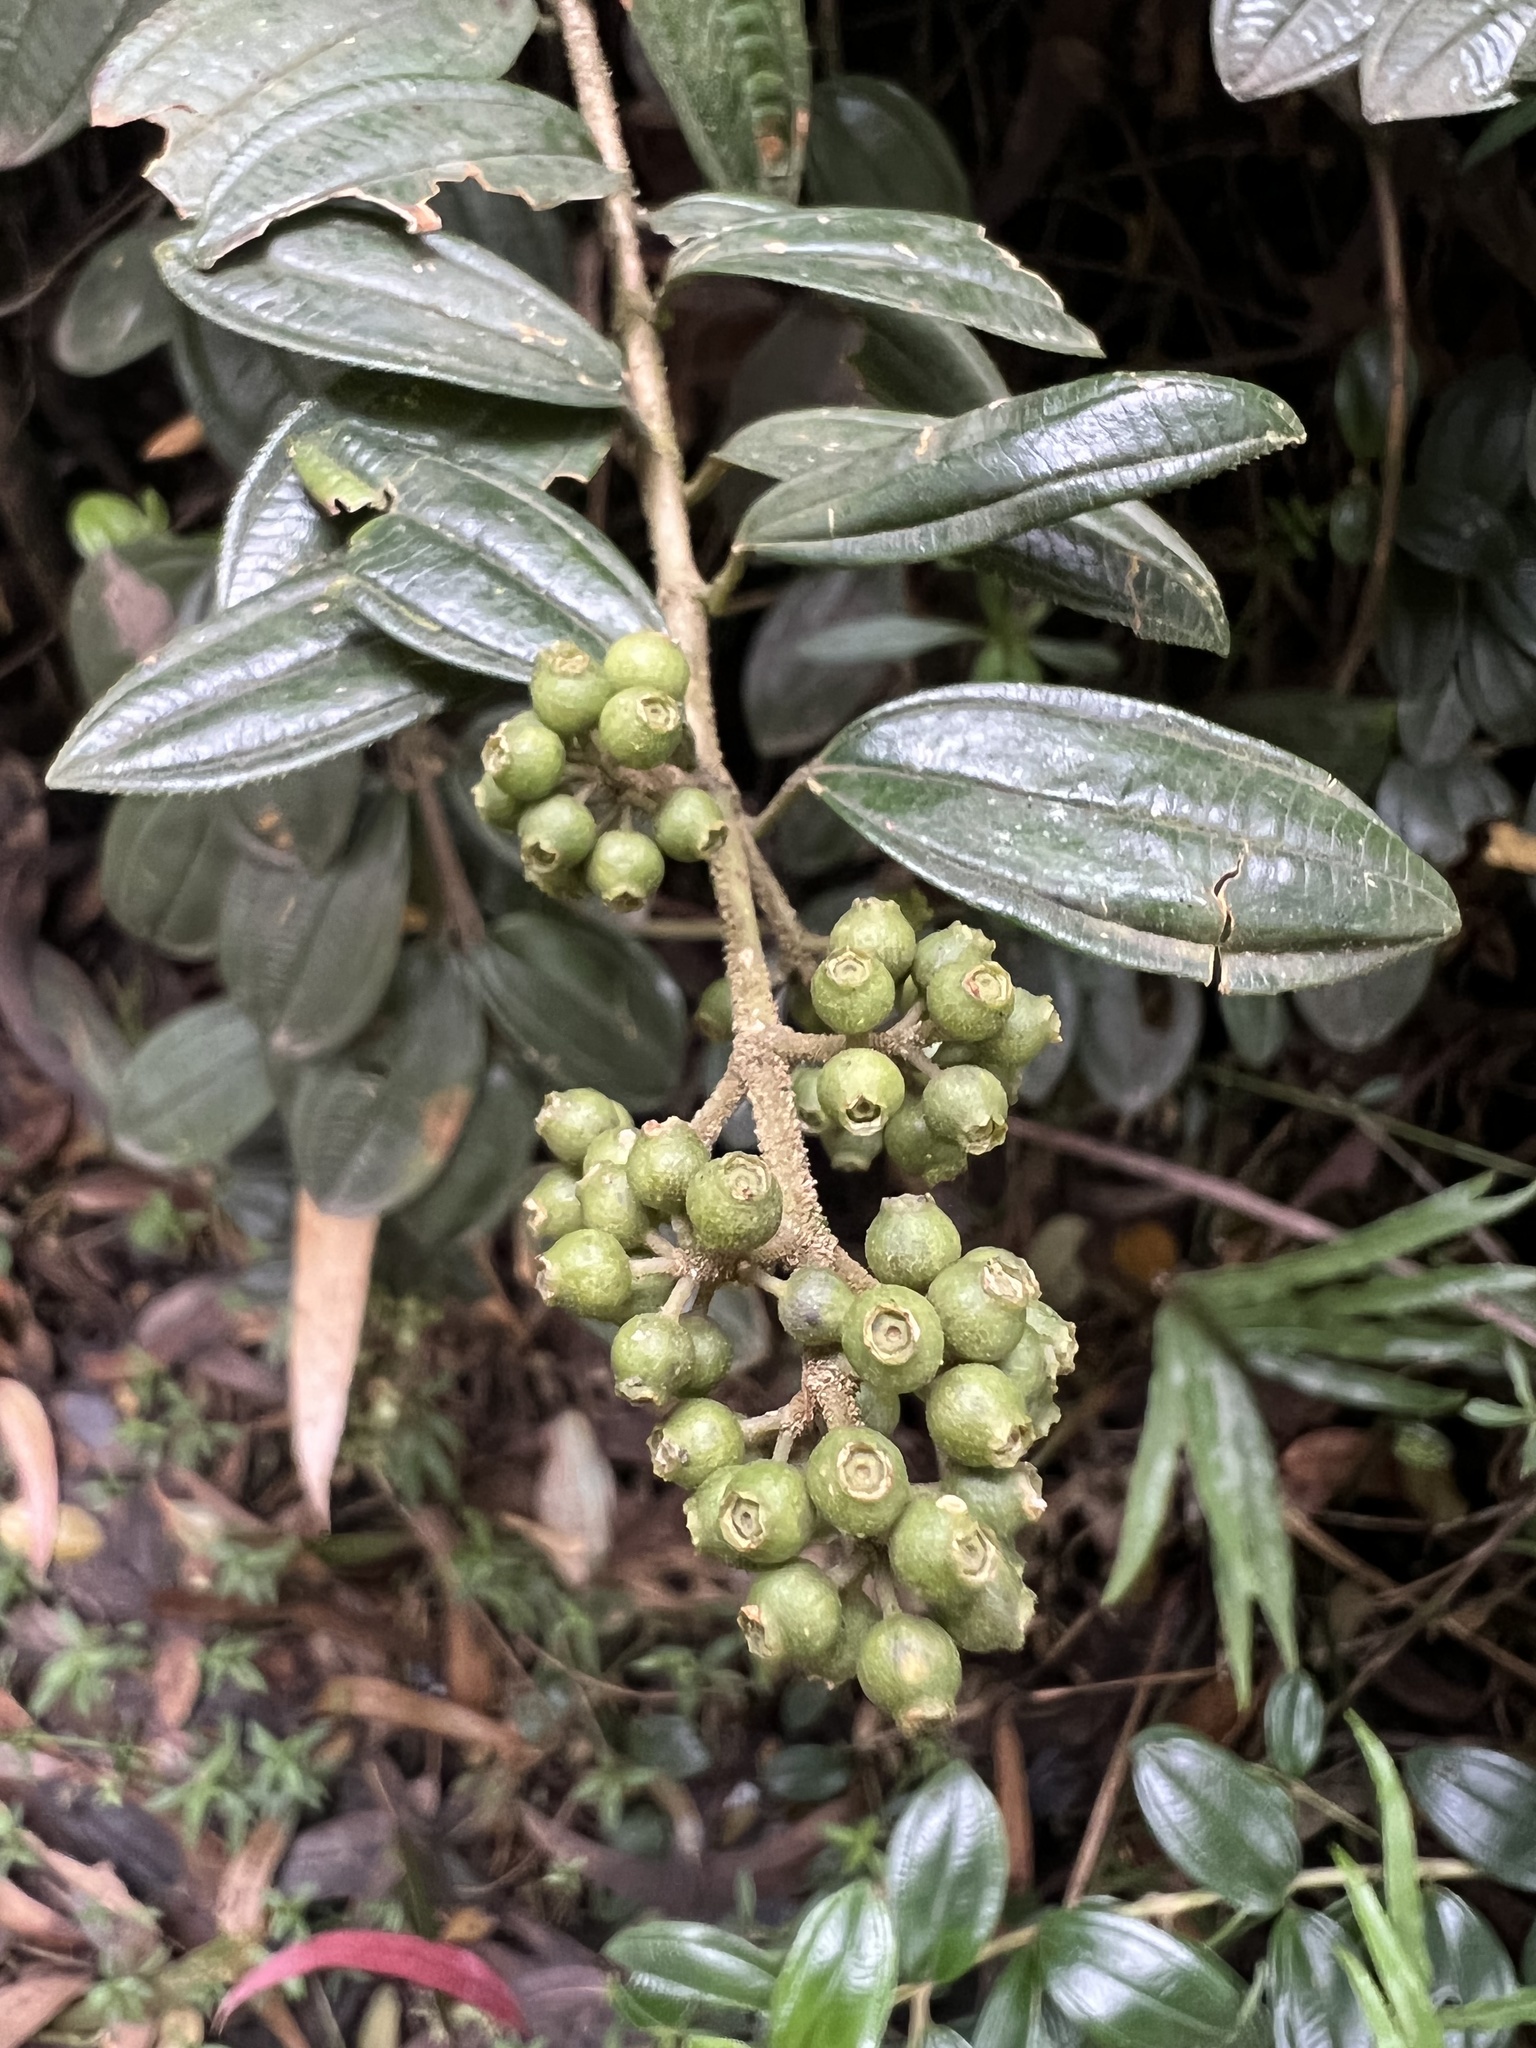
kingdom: Plantae
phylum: Tracheophyta
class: Magnoliopsida
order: Myrtales
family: Melastomataceae
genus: Miconia
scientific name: Miconia mahechae
